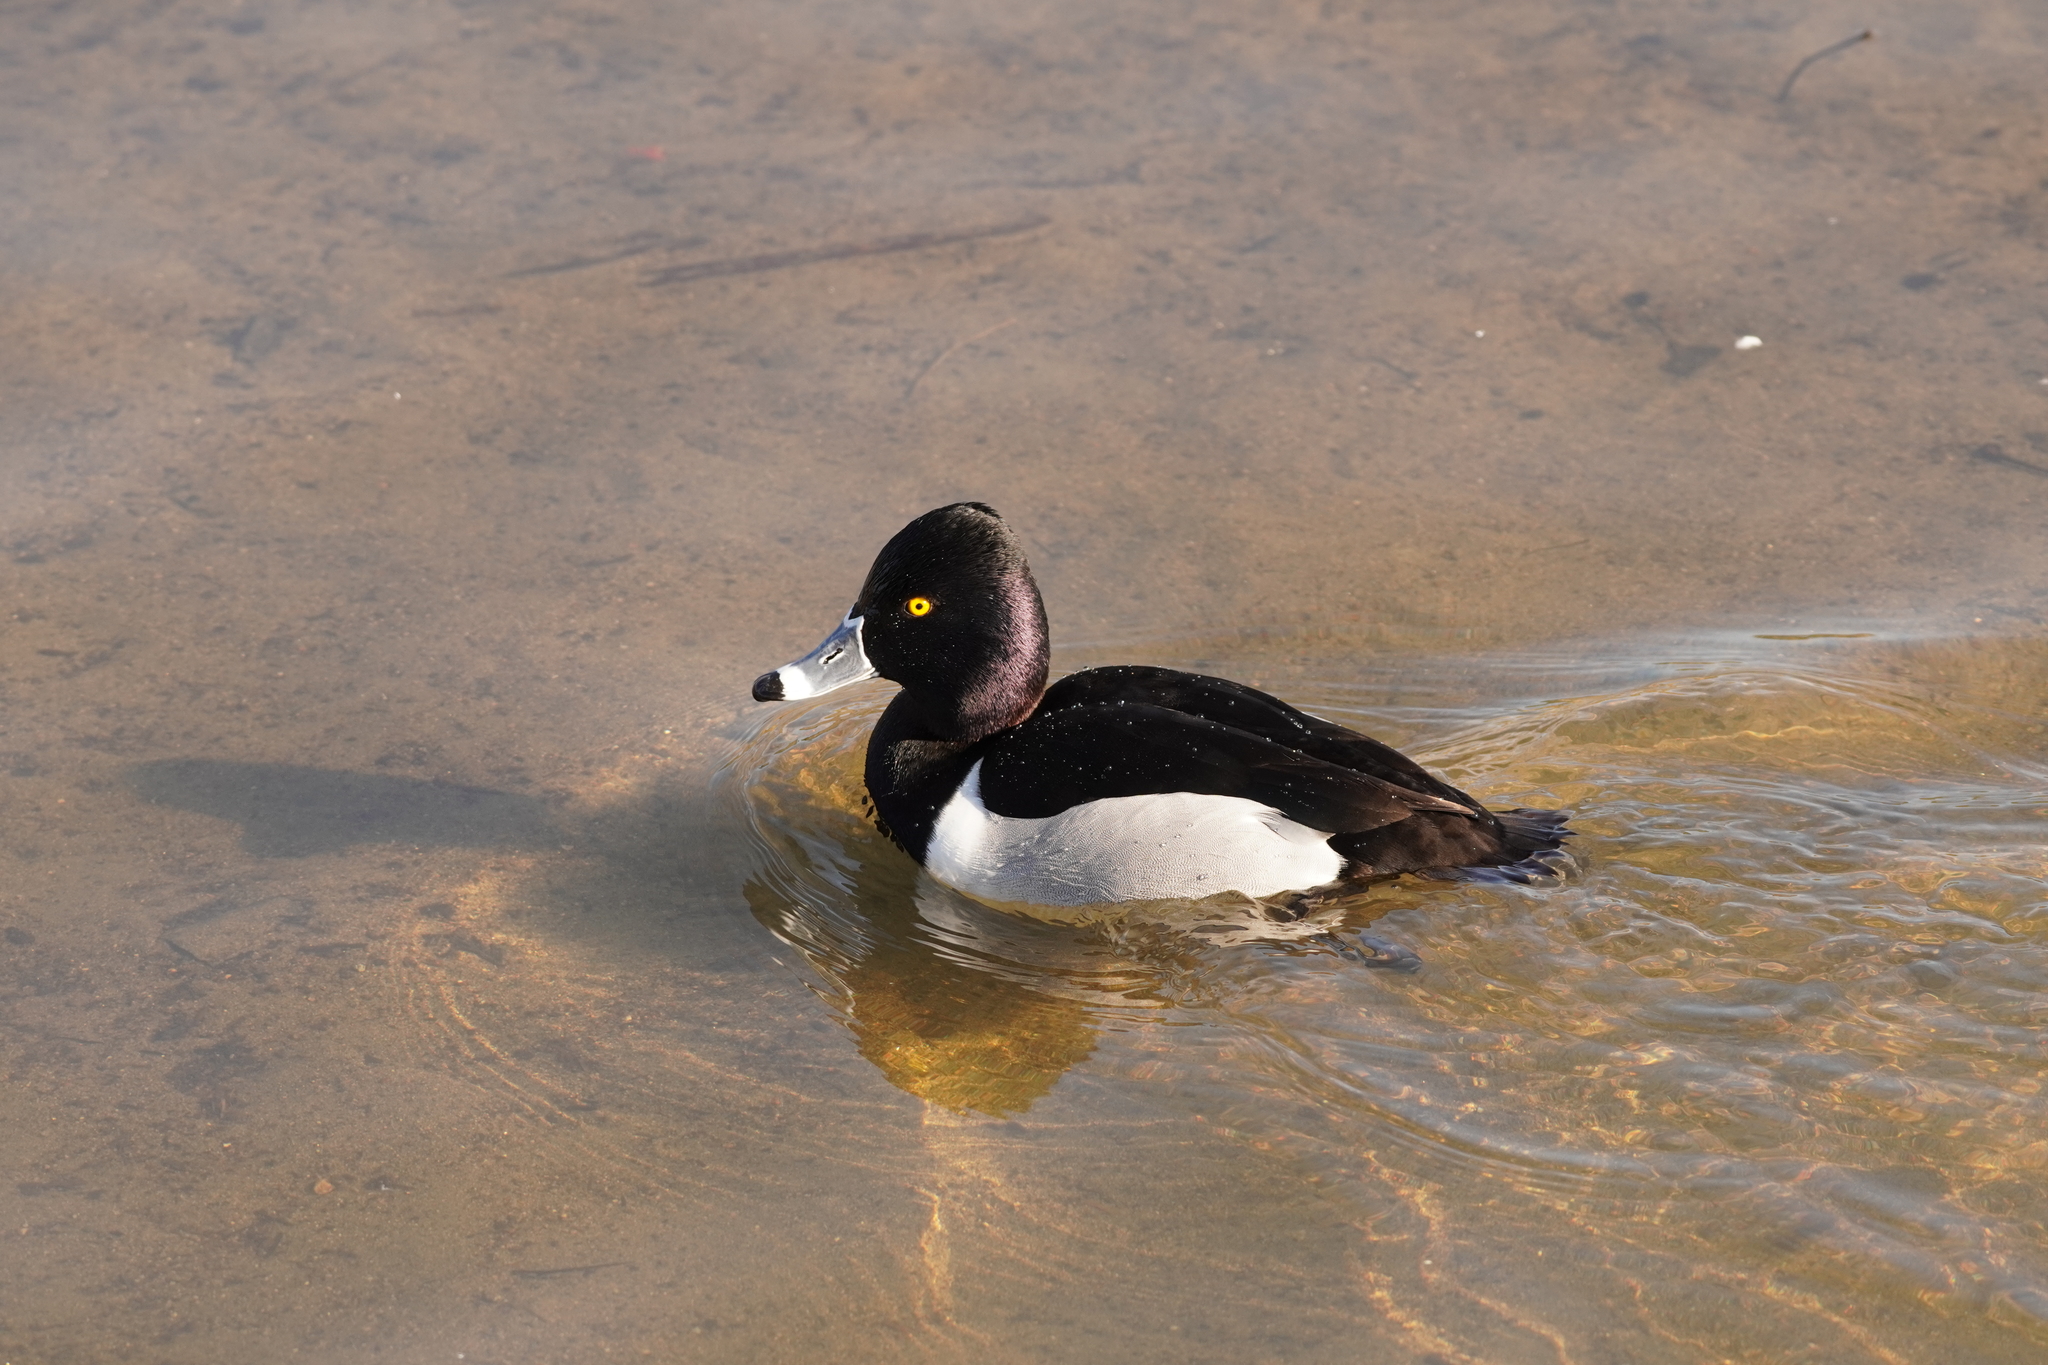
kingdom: Animalia
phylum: Chordata
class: Aves
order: Anseriformes
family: Anatidae
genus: Aythya
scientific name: Aythya collaris
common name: Ring-necked duck
